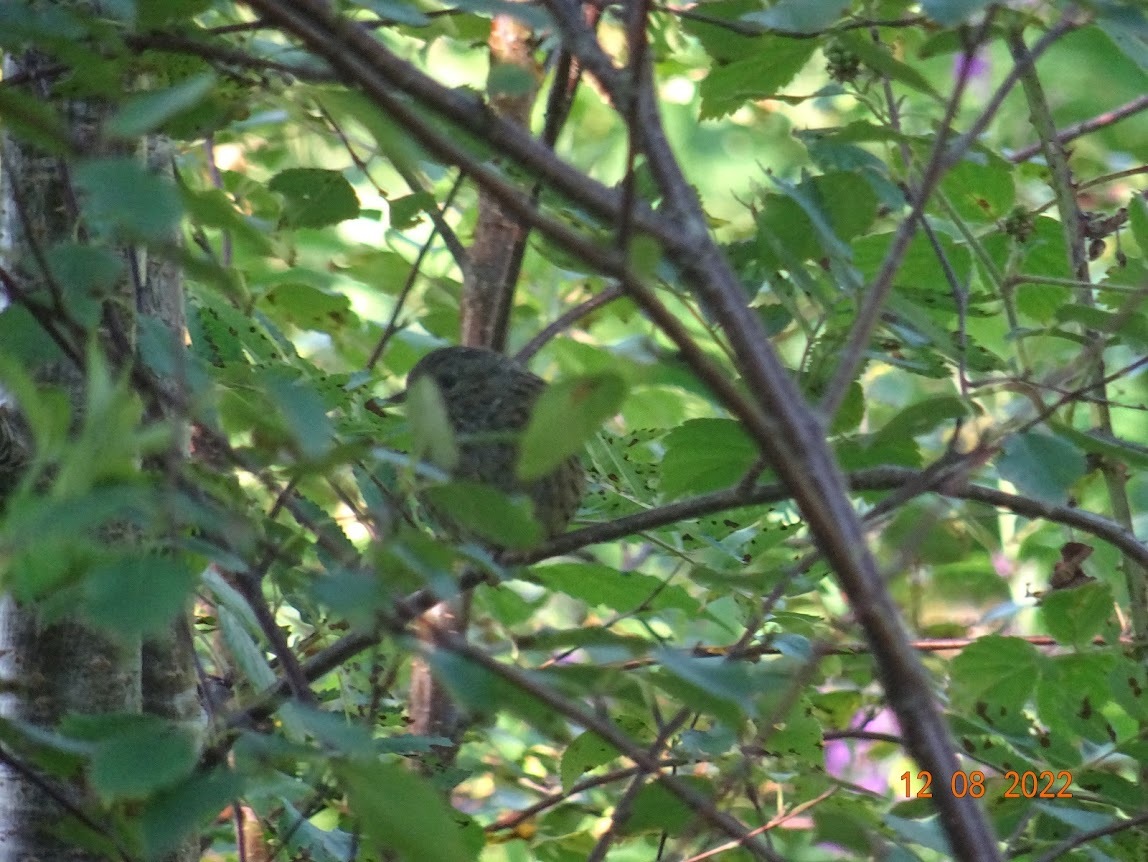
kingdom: Animalia
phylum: Chordata
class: Aves
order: Passeriformes
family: Prunellidae
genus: Prunella
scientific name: Prunella modularis
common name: Dunnock
